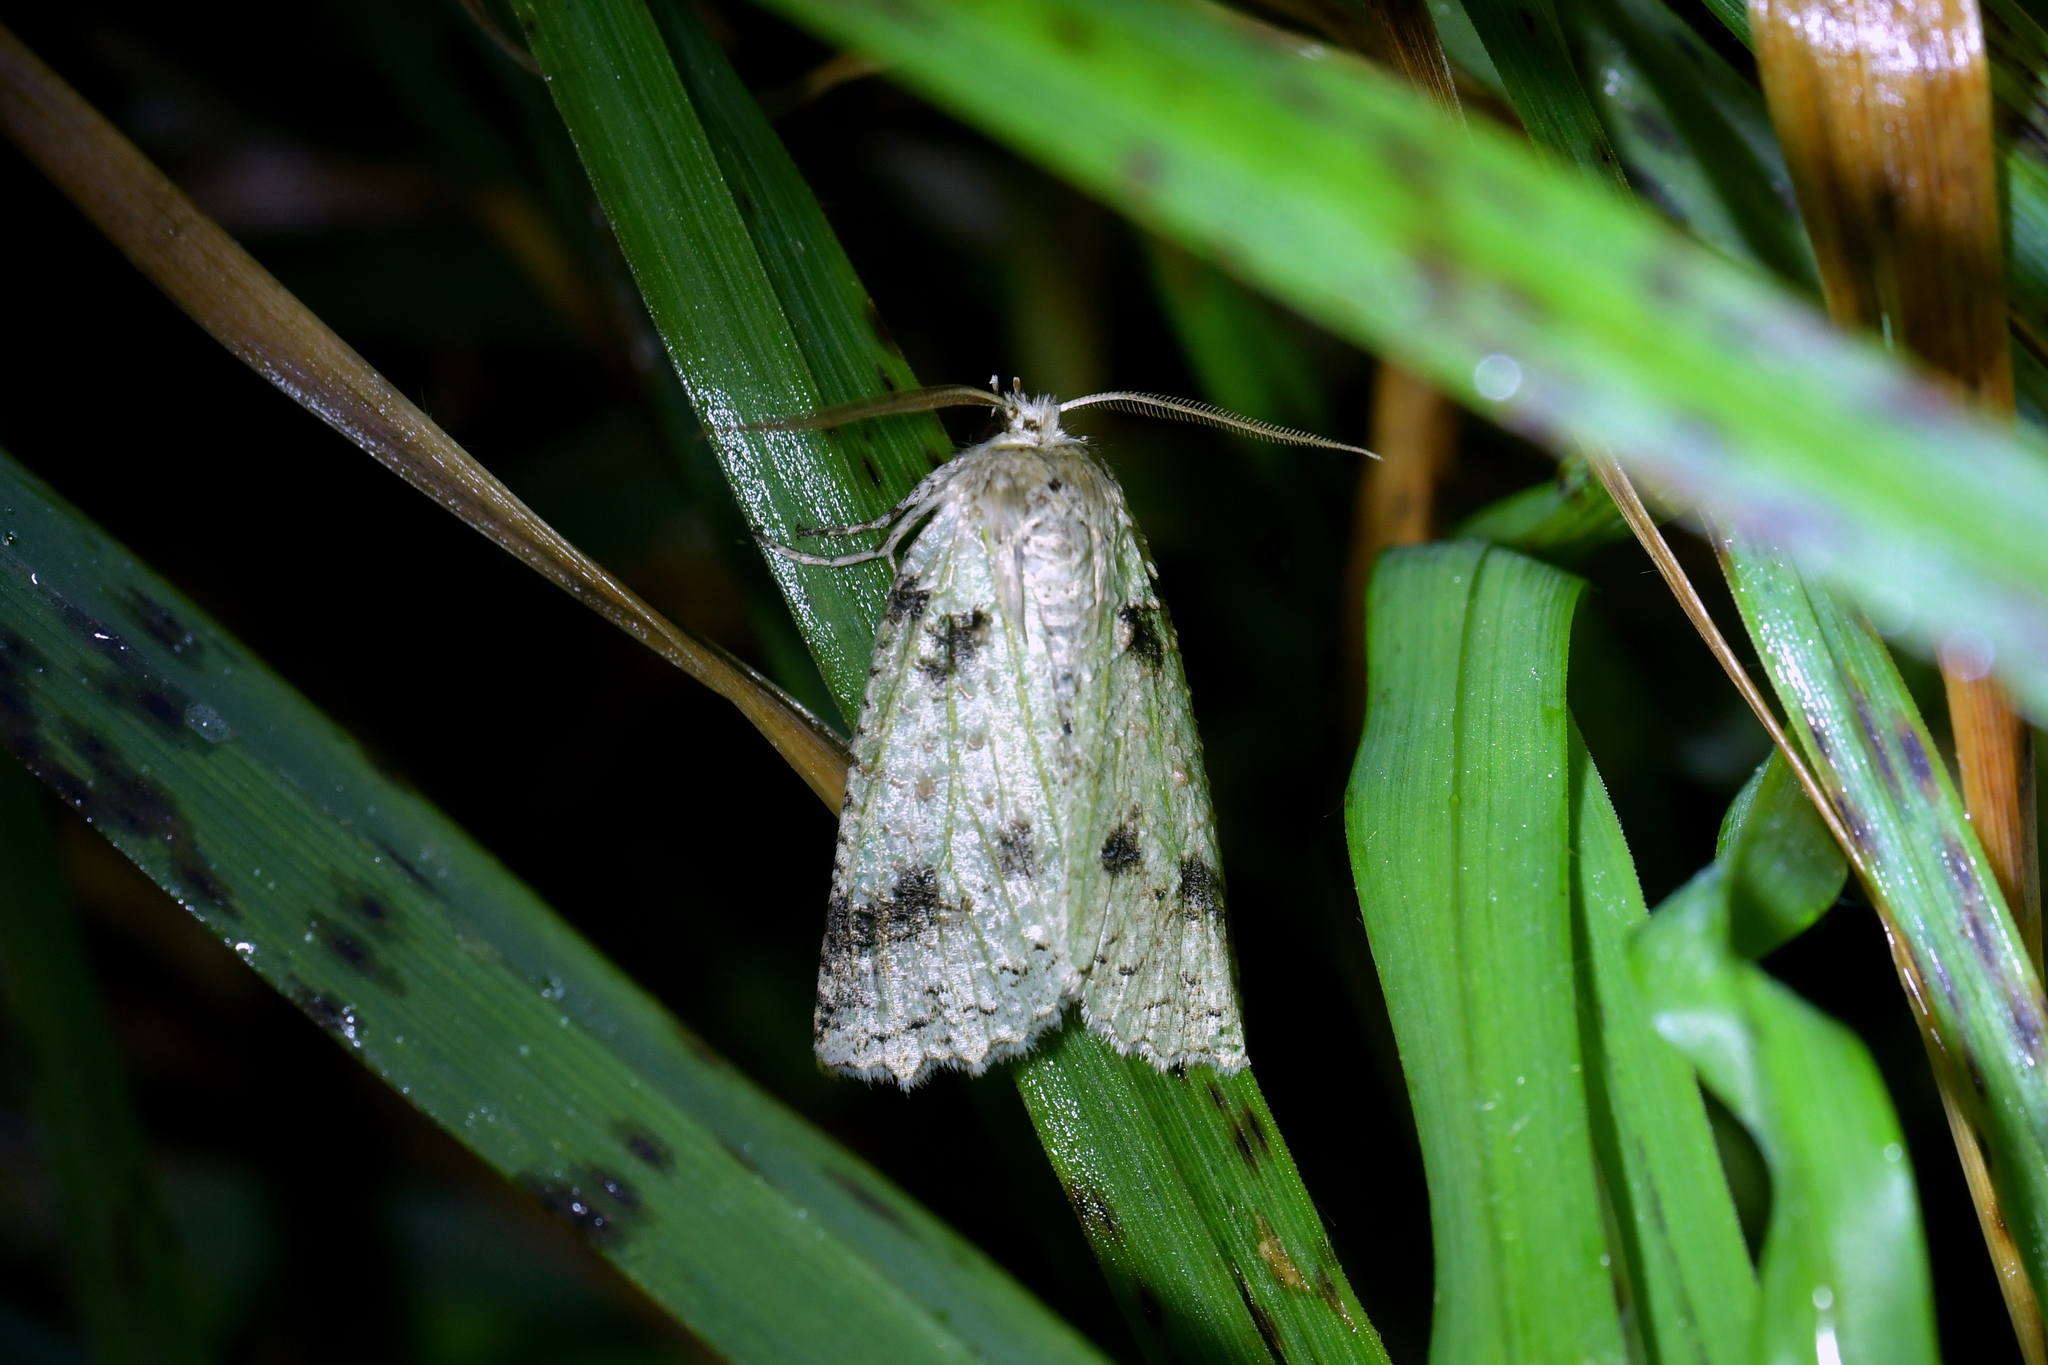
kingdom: Animalia
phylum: Arthropoda
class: Insecta
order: Lepidoptera
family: Geometridae
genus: Declana
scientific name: Declana floccosa
